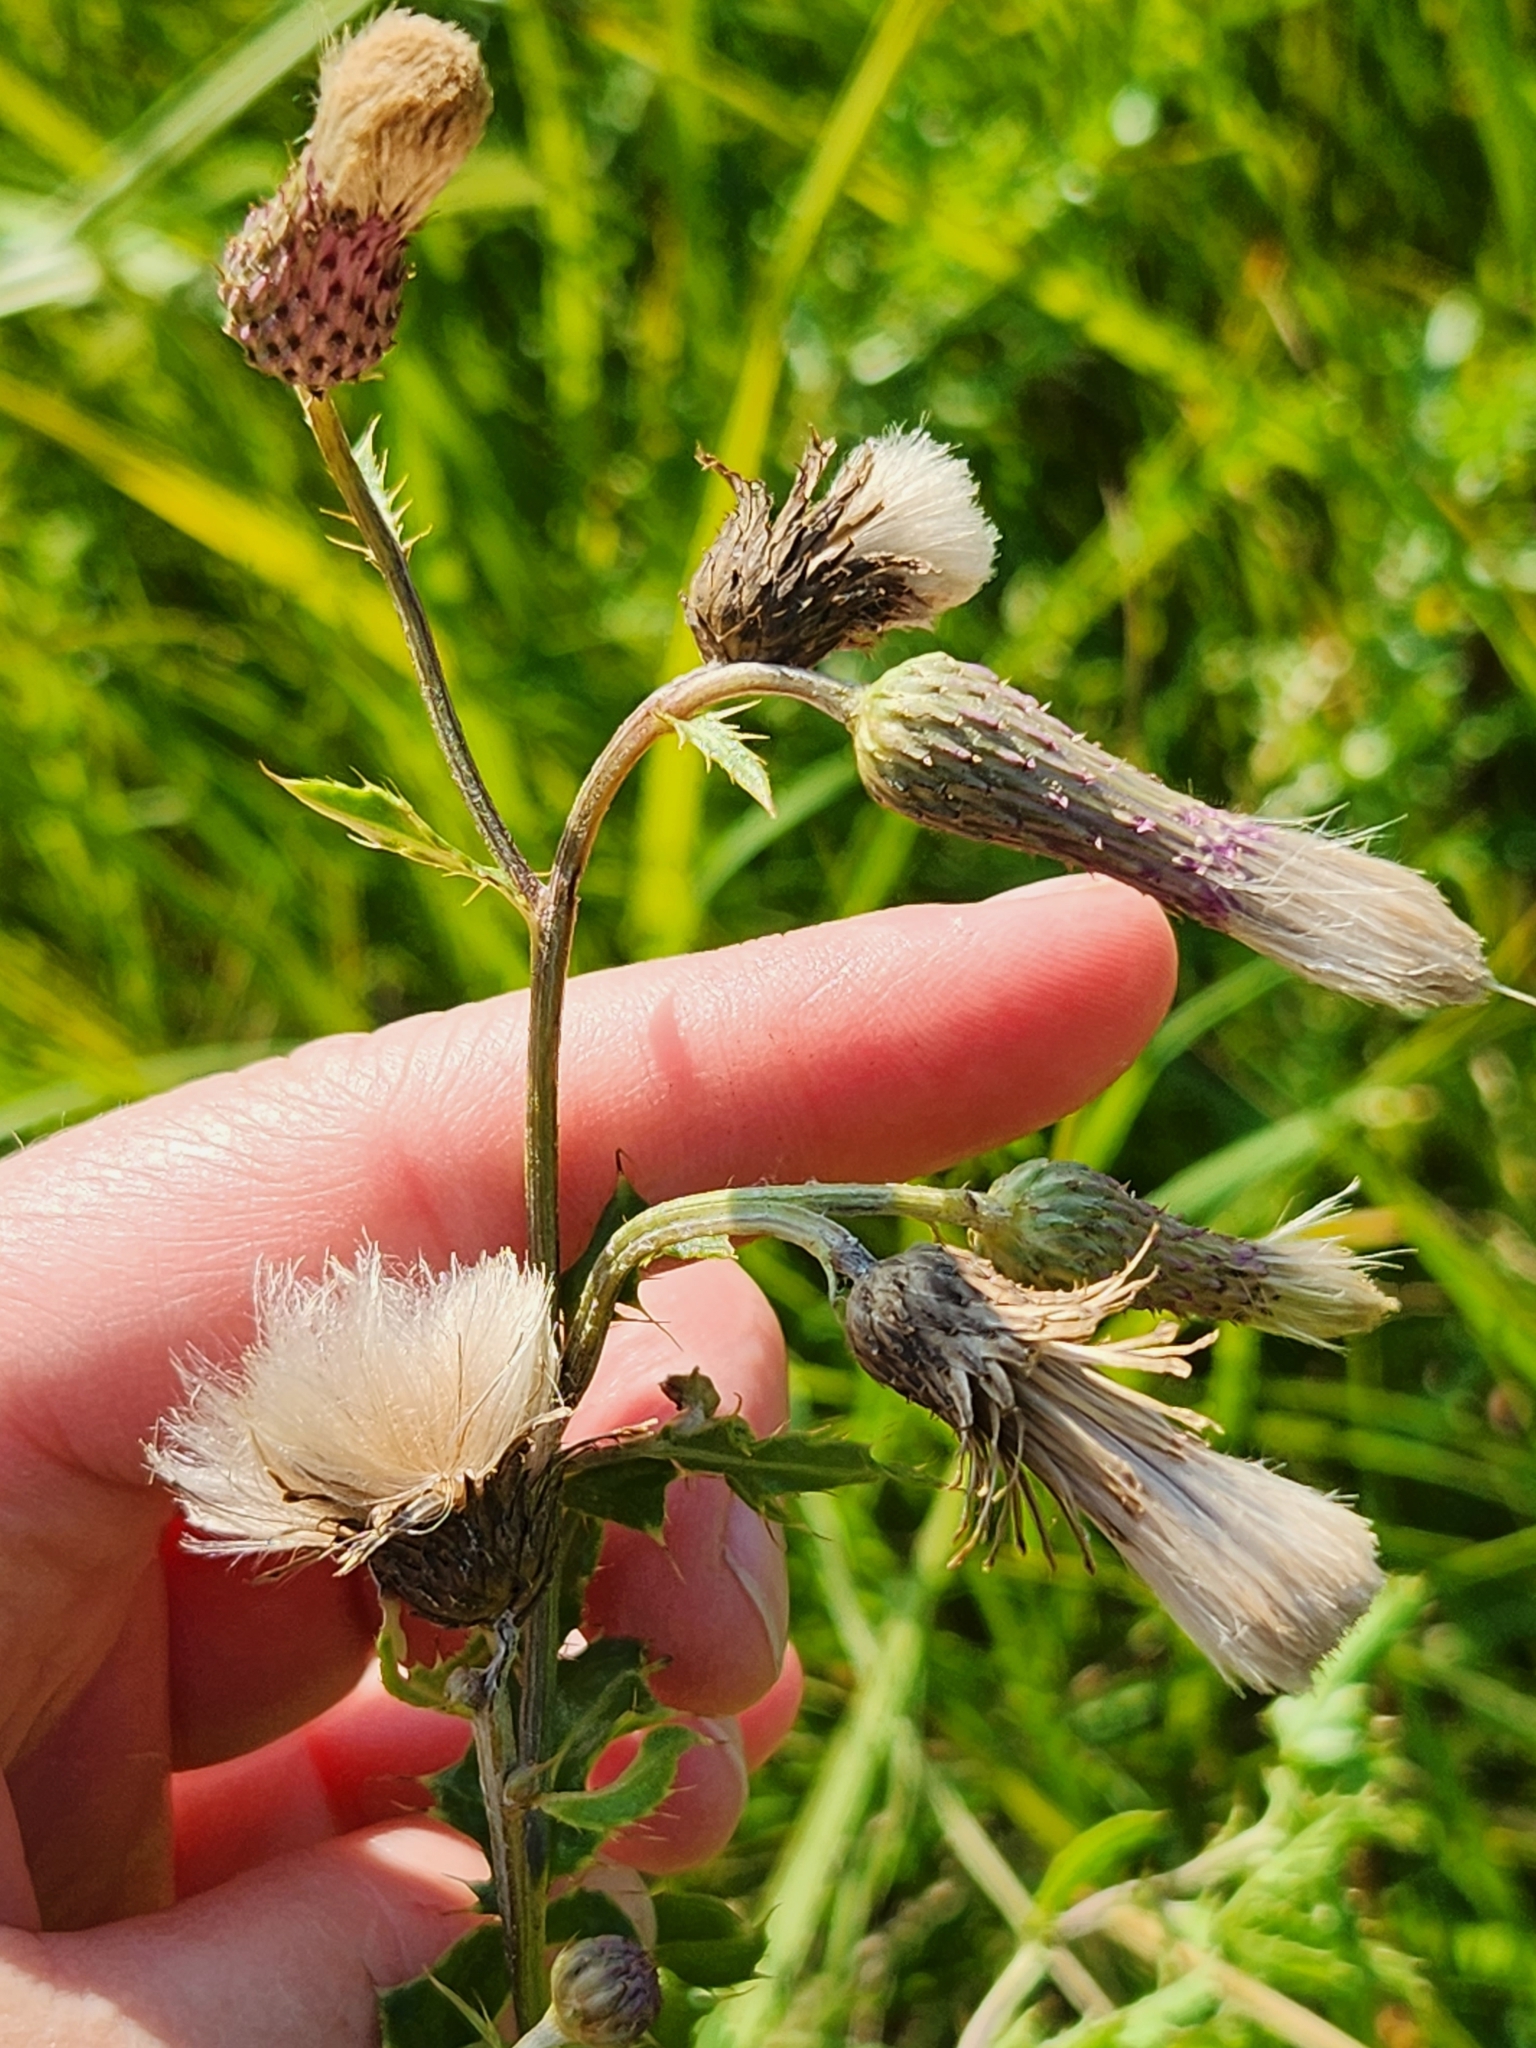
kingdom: Plantae
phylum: Tracheophyta
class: Magnoliopsida
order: Asterales
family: Asteraceae
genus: Cirsium
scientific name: Cirsium arvense
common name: Creeping thistle
